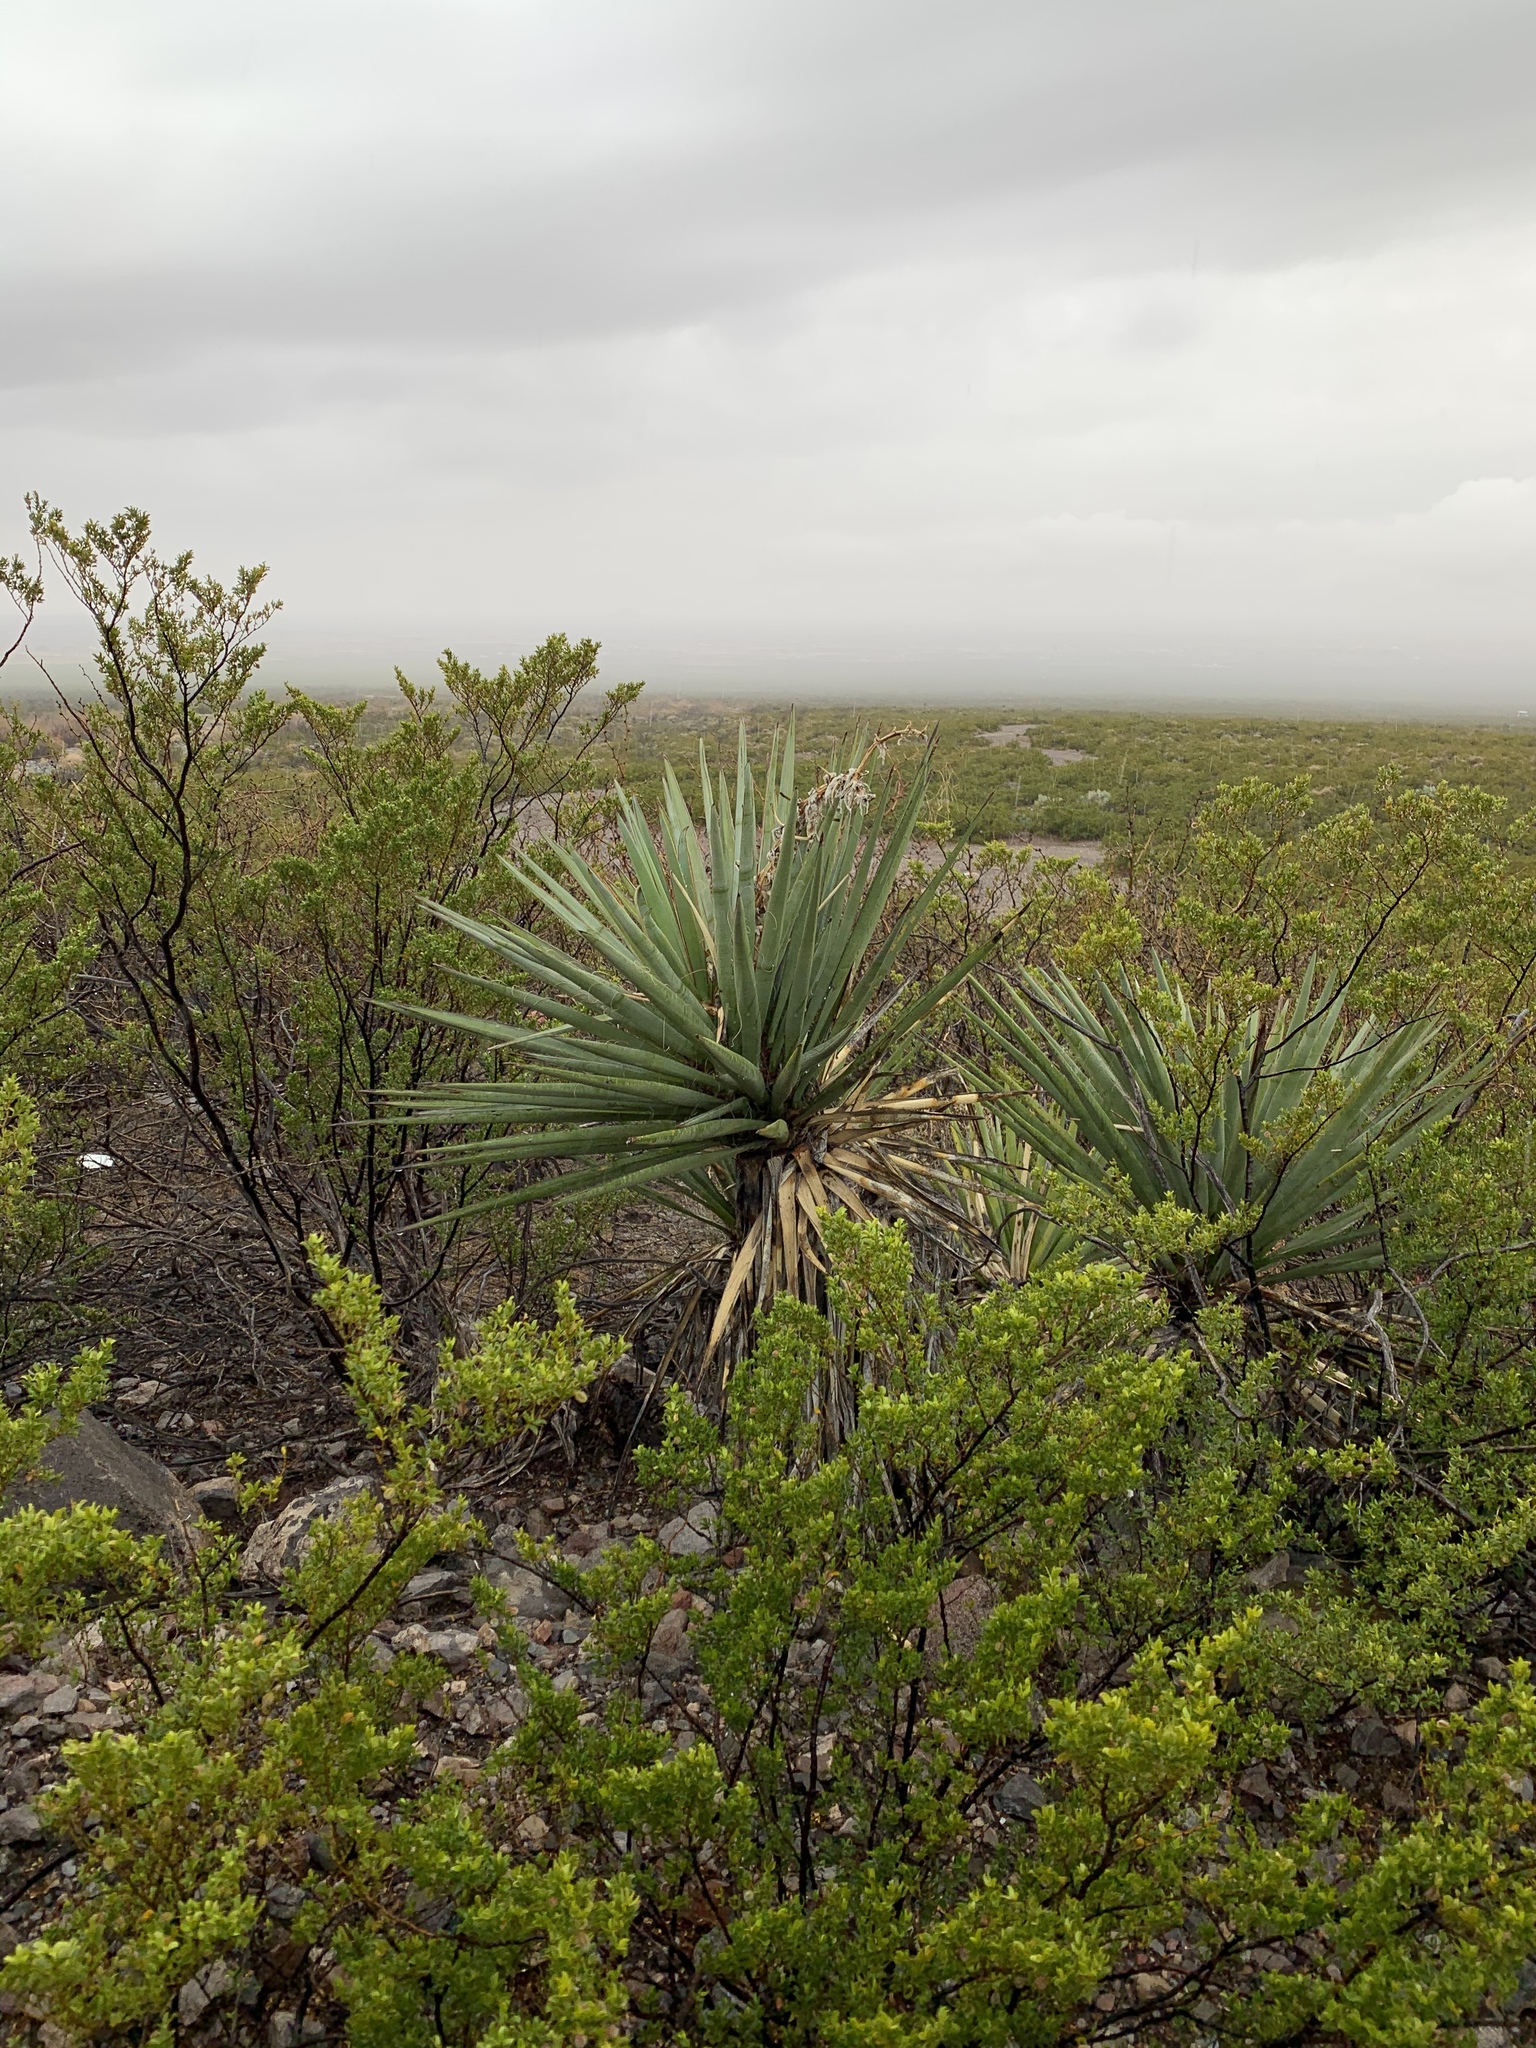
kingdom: Plantae
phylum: Tracheophyta
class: Liliopsida
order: Asparagales
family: Asparagaceae
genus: Yucca
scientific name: Yucca treculiana
